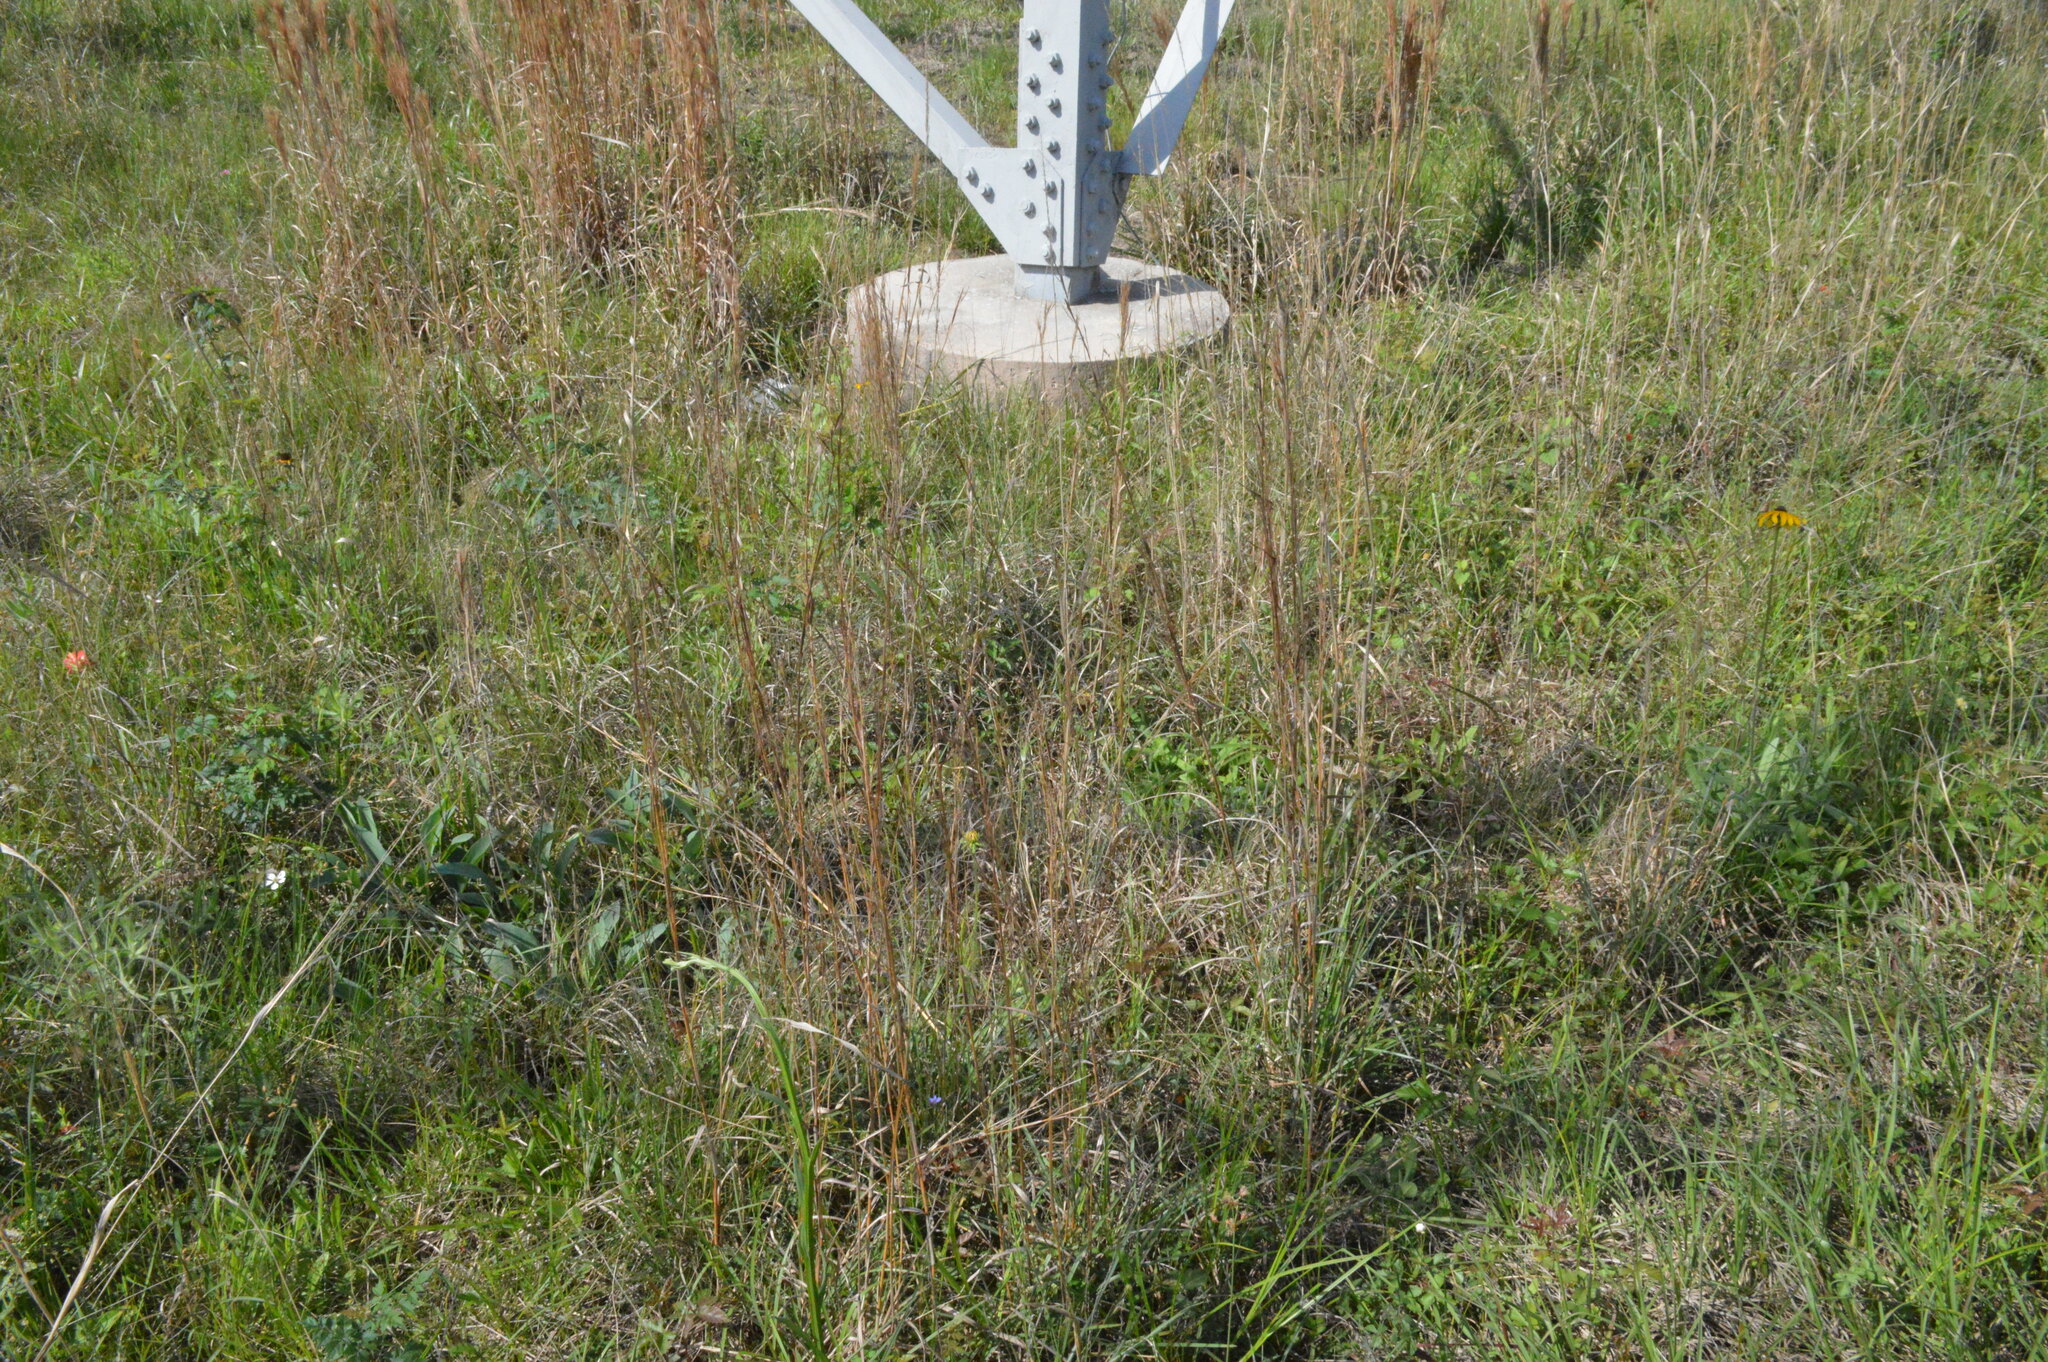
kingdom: Plantae
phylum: Tracheophyta
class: Liliopsida
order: Poales
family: Poaceae
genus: Schizachyrium
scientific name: Schizachyrium scoparium
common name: Little bluestem
